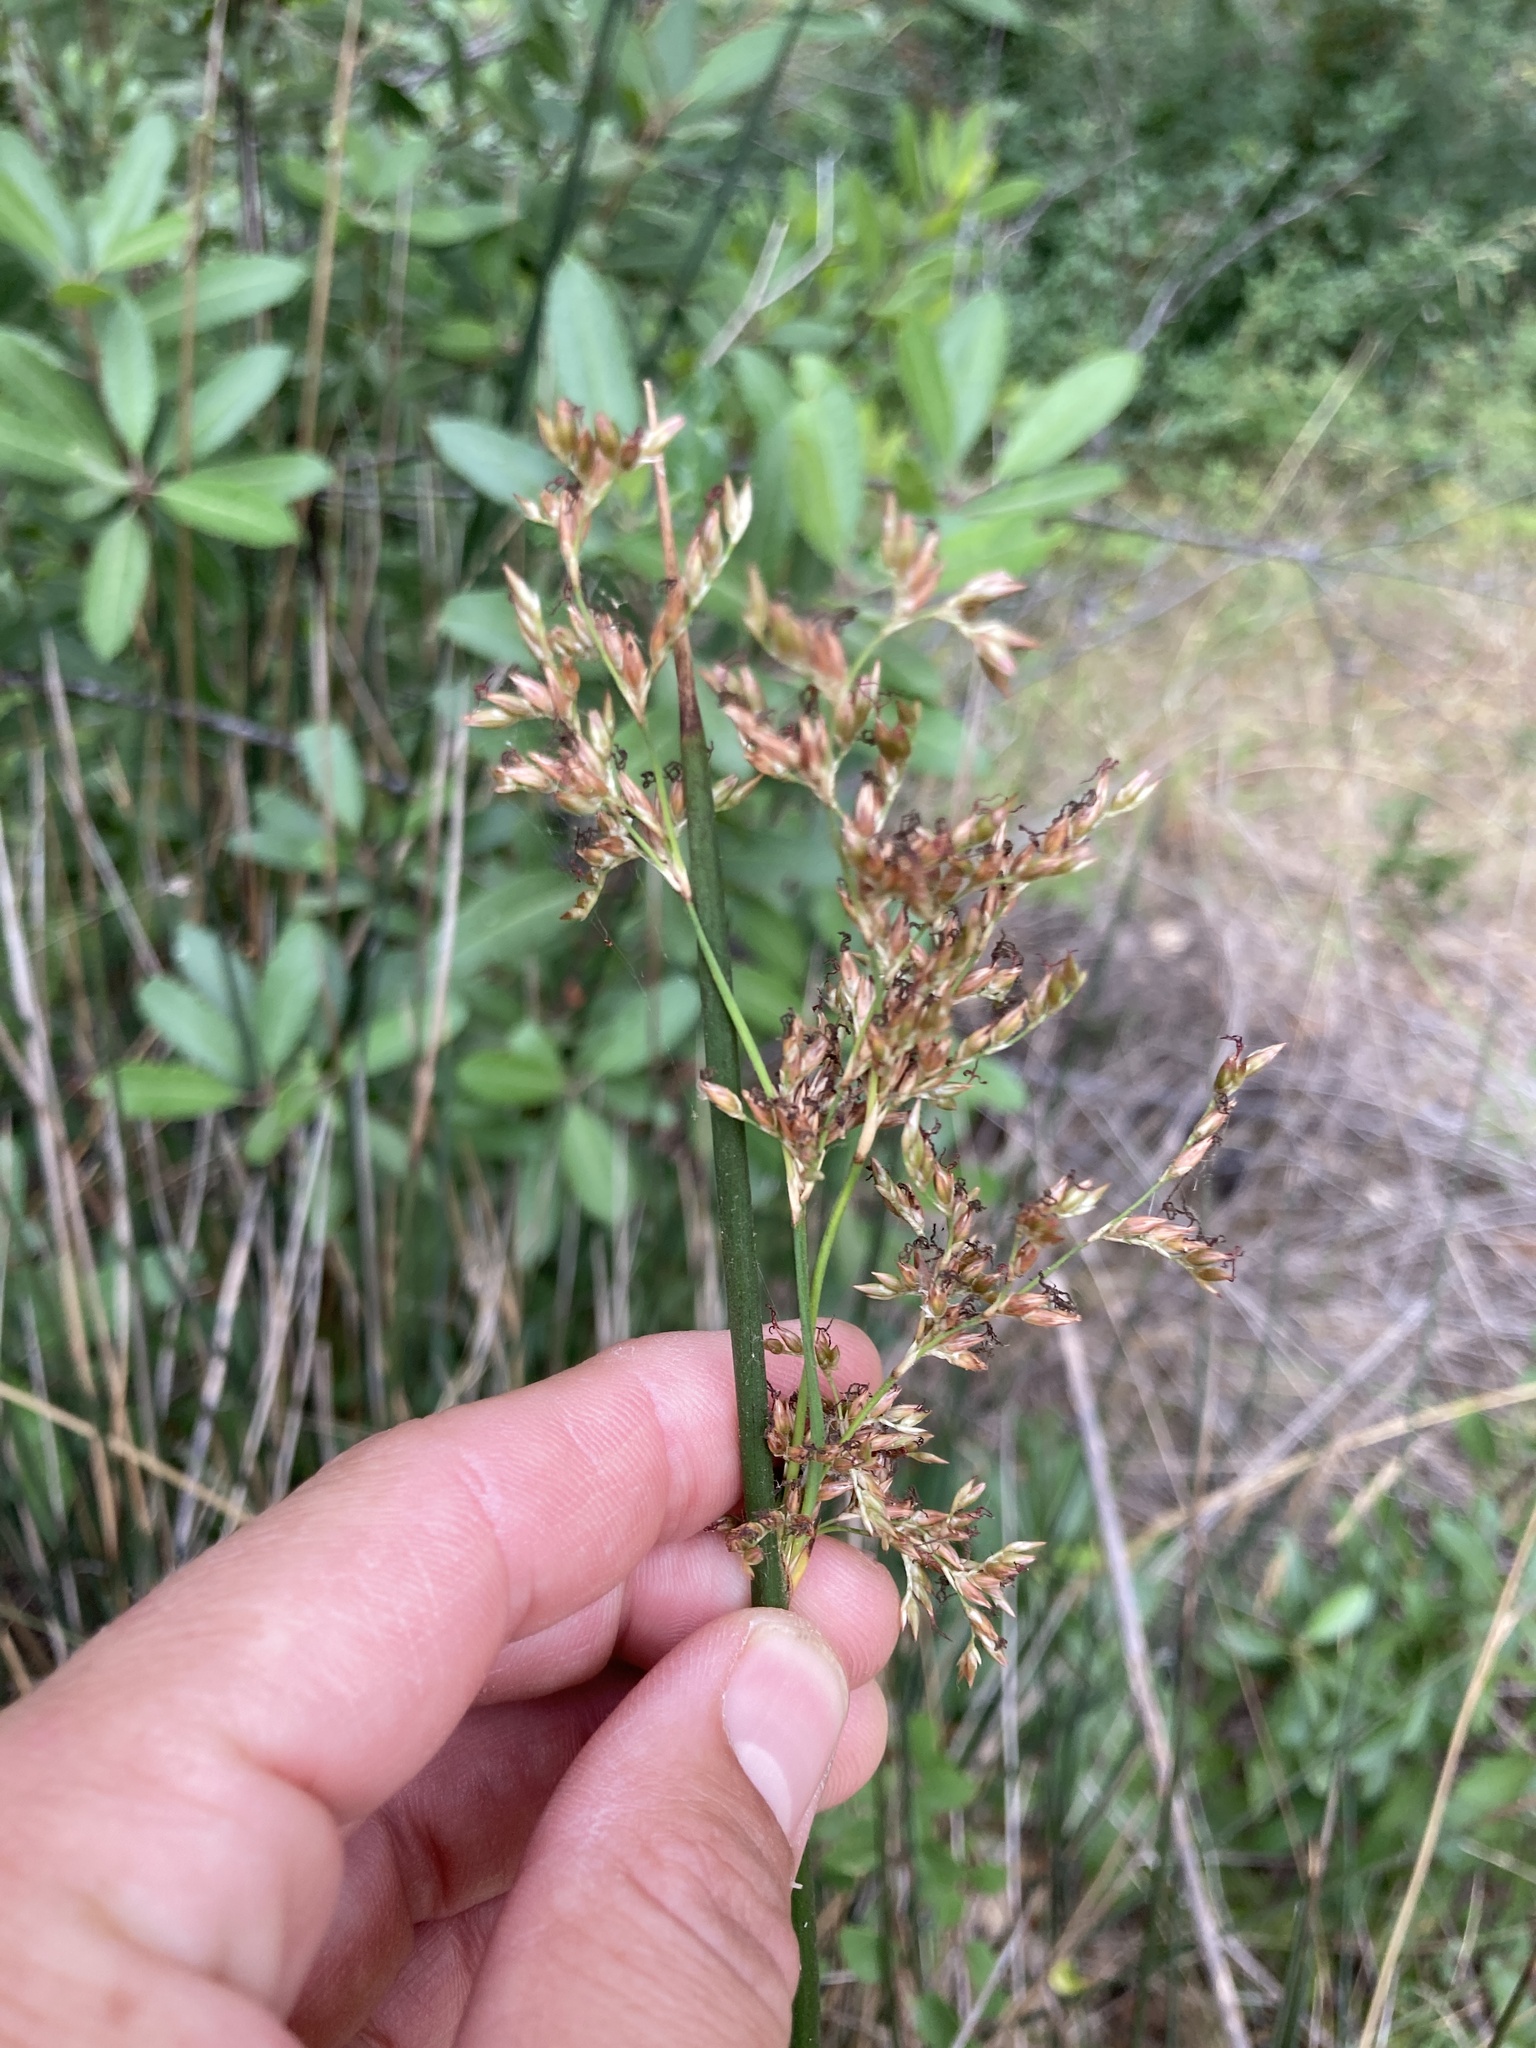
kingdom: Plantae
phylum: Tracheophyta
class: Liliopsida
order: Poales
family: Juncaceae
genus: Juncus
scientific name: Juncus patens
